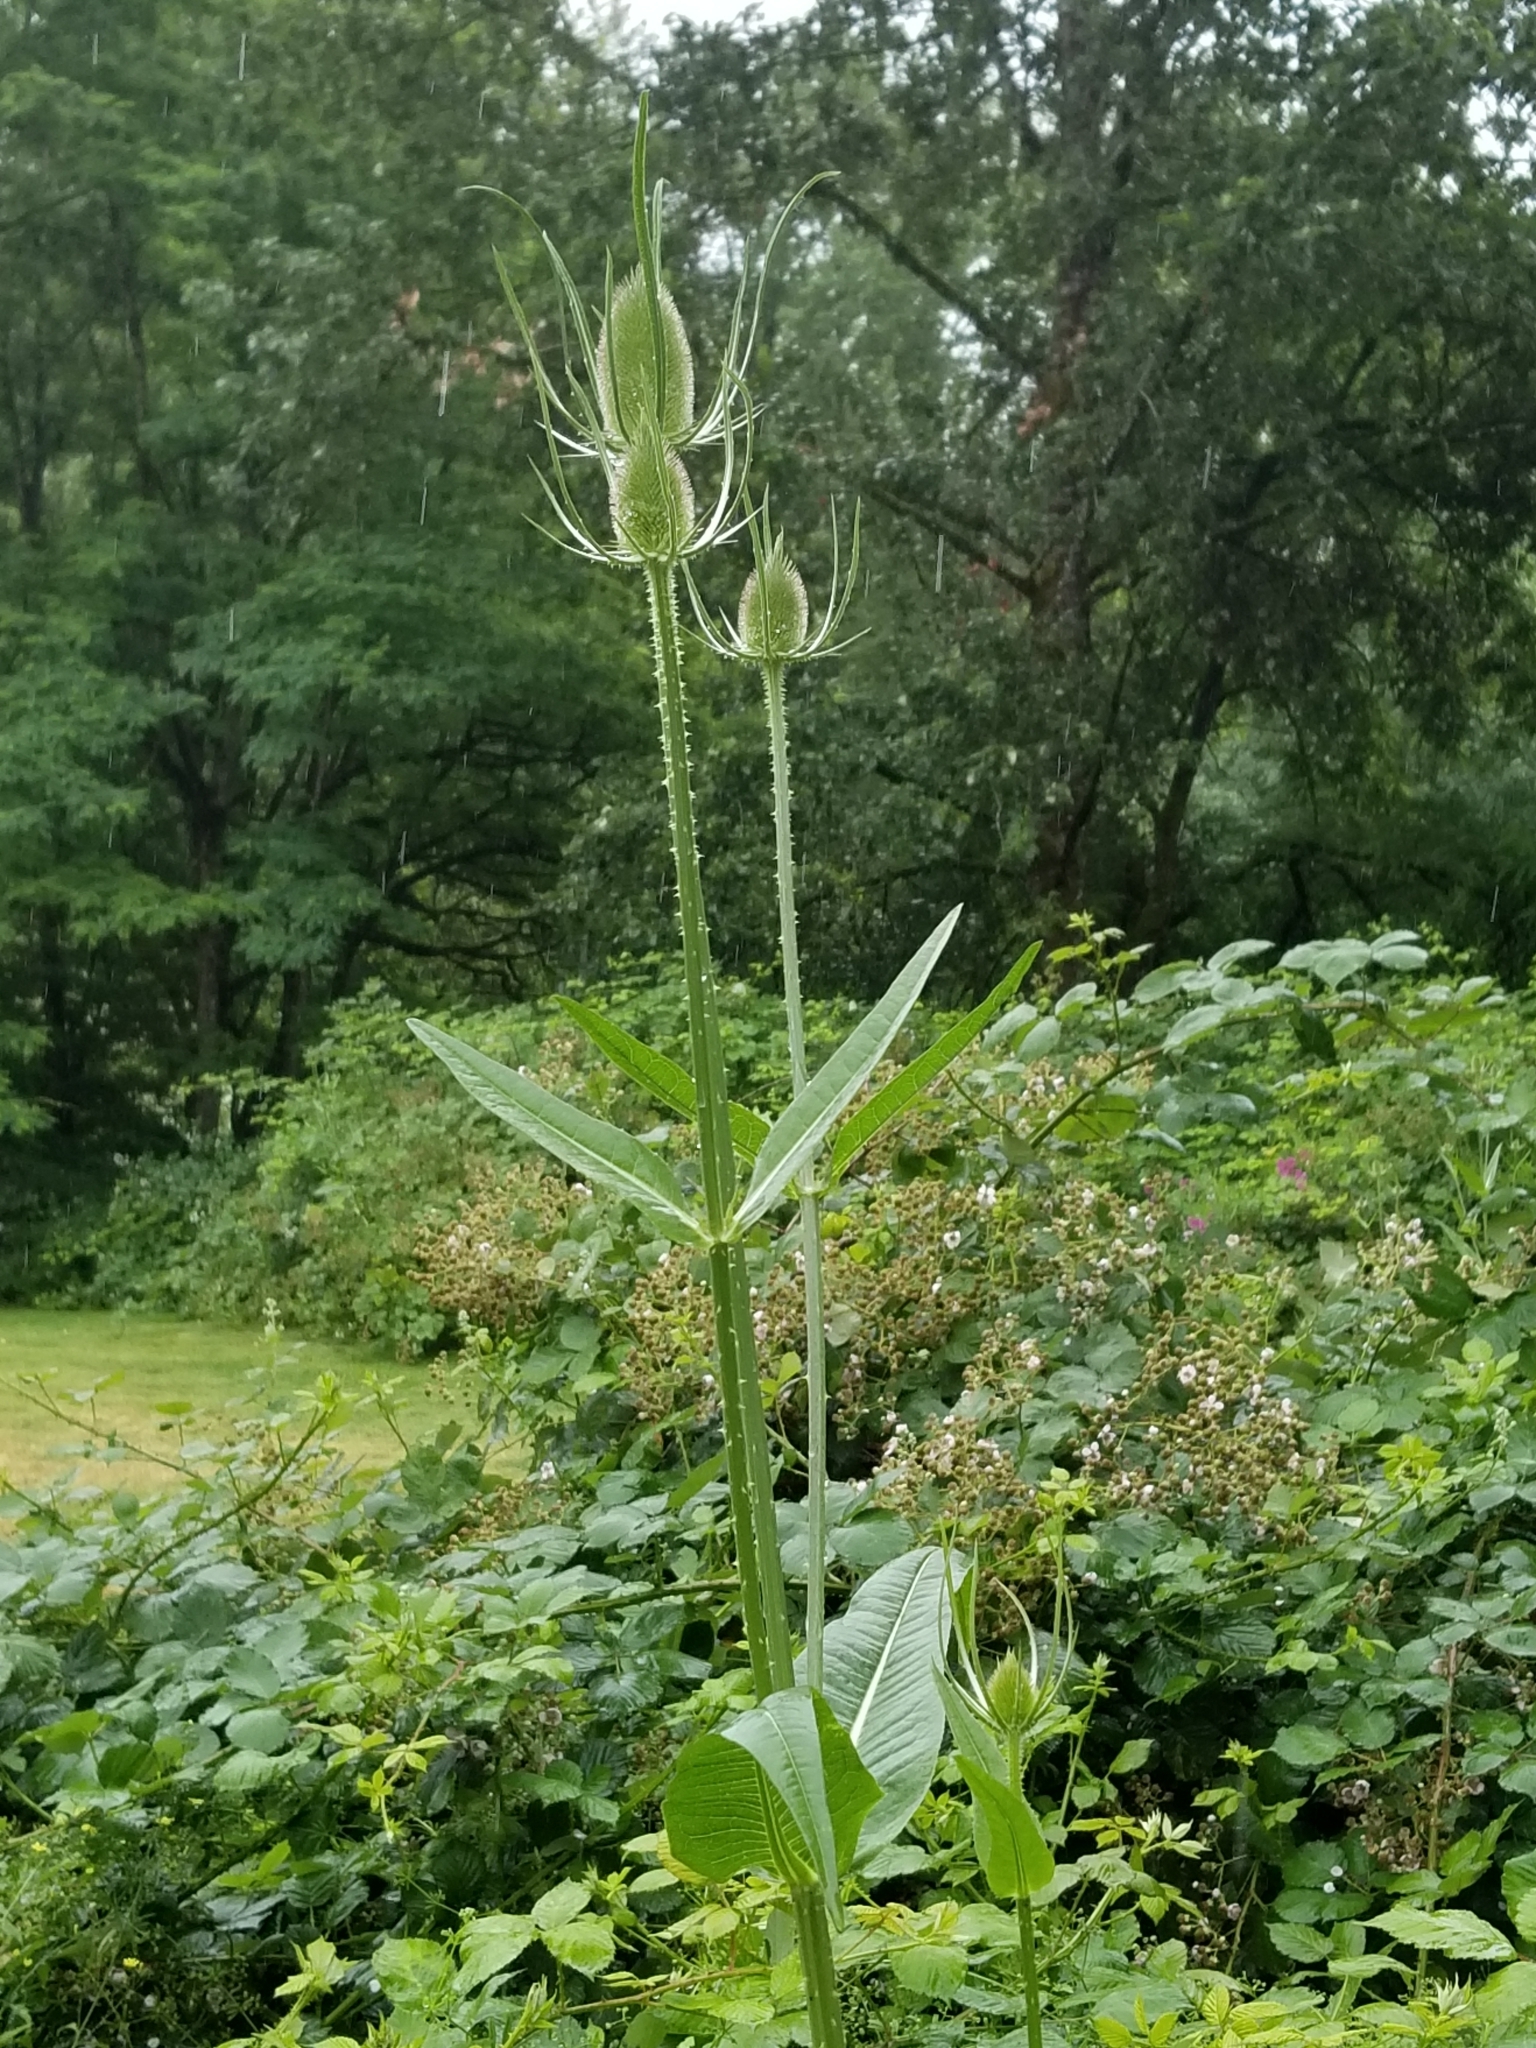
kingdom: Plantae
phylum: Tracheophyta
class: Magnoliopsida
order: Dipsacales
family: Caprifoliaceae
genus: Dipsacus
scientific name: Dipsacus fullonum
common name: Teasel
